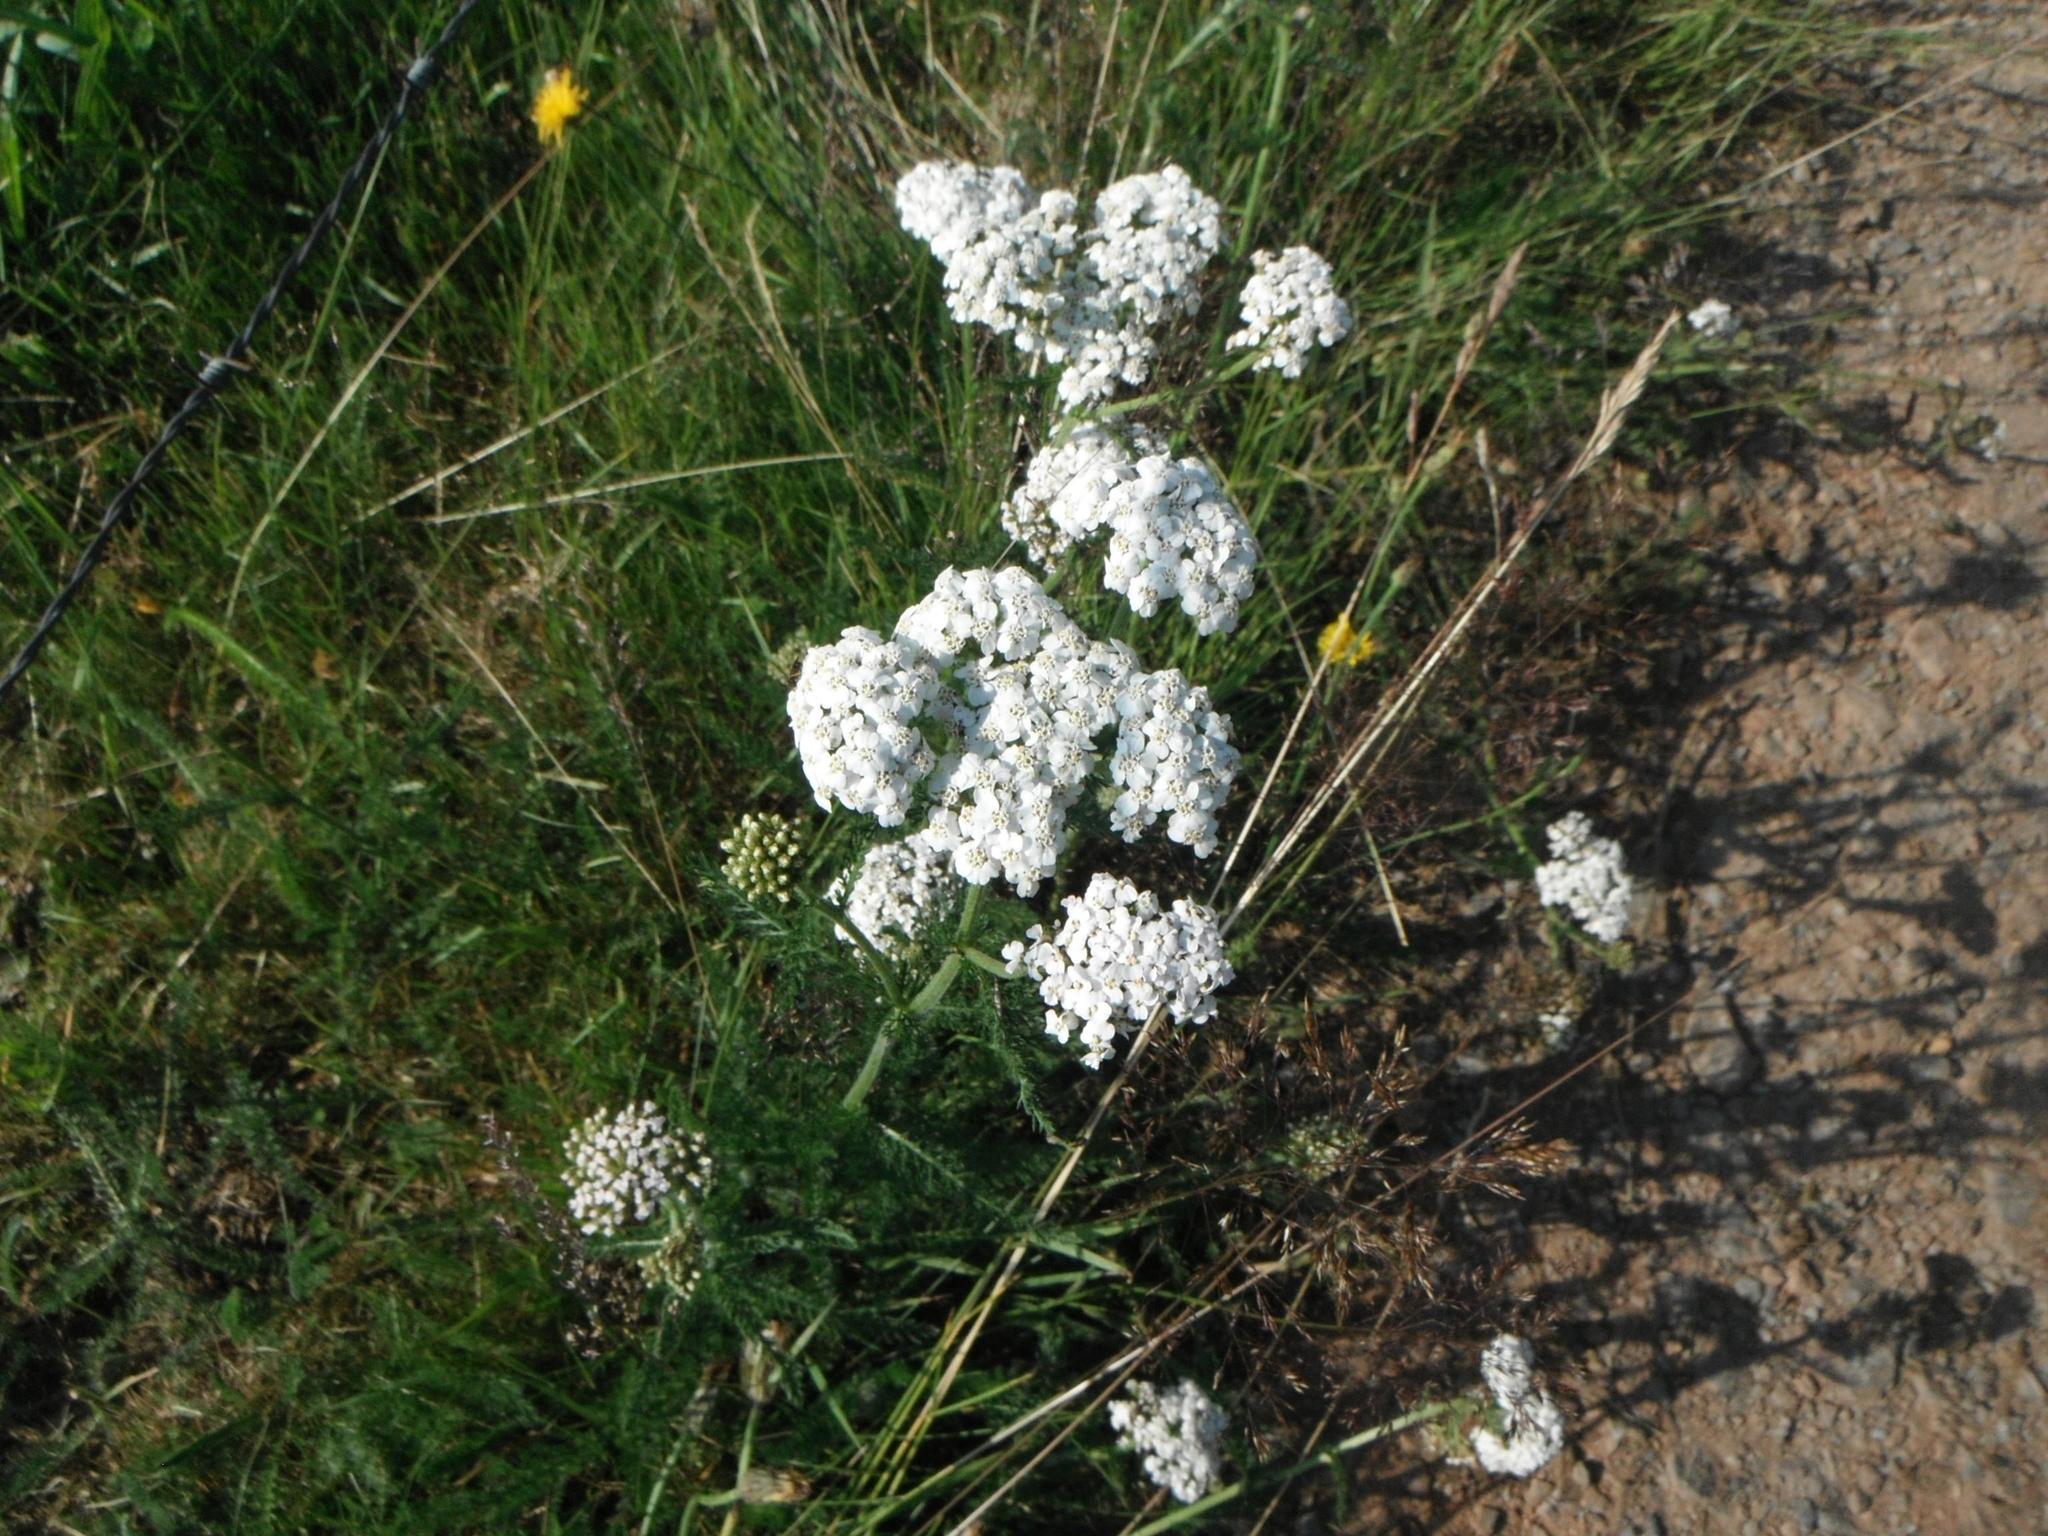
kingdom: Plantae
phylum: Tracheophyta
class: Magnoliopsida
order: Asterales
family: Asteraceae
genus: Achillea
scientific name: Achillea millefolium
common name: Yarrow
